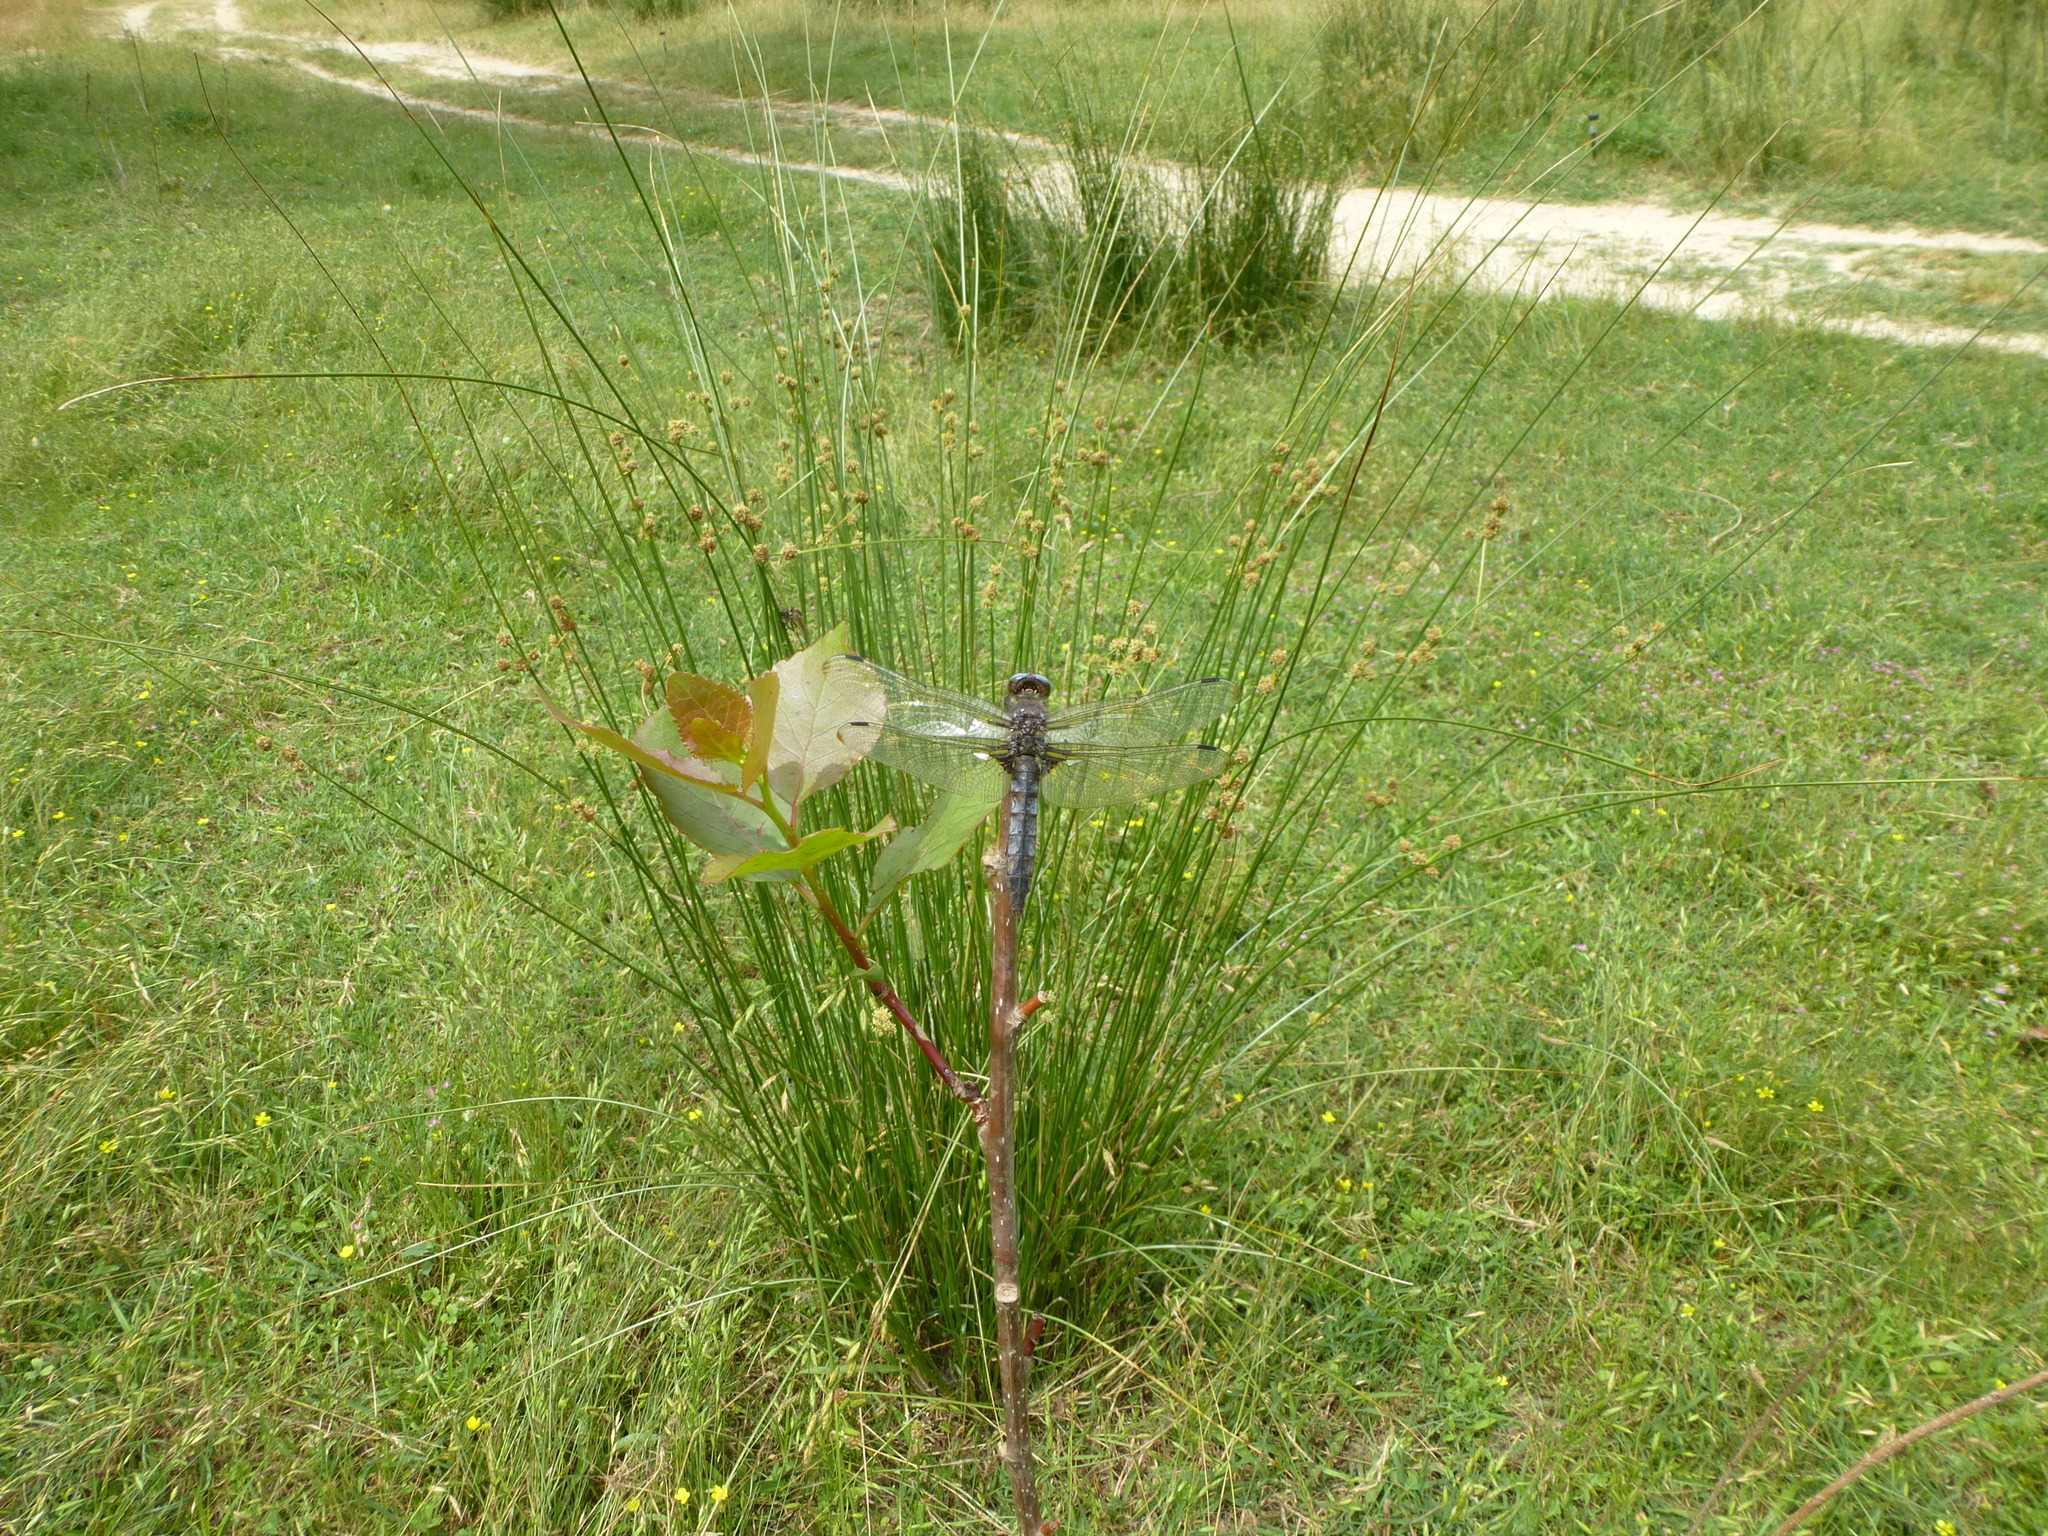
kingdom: Animalia
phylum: Arthropoda
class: Insecta
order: Odonata
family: Libellulidae
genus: Libellula
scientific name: Libellula fulva
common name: Blue chaser
